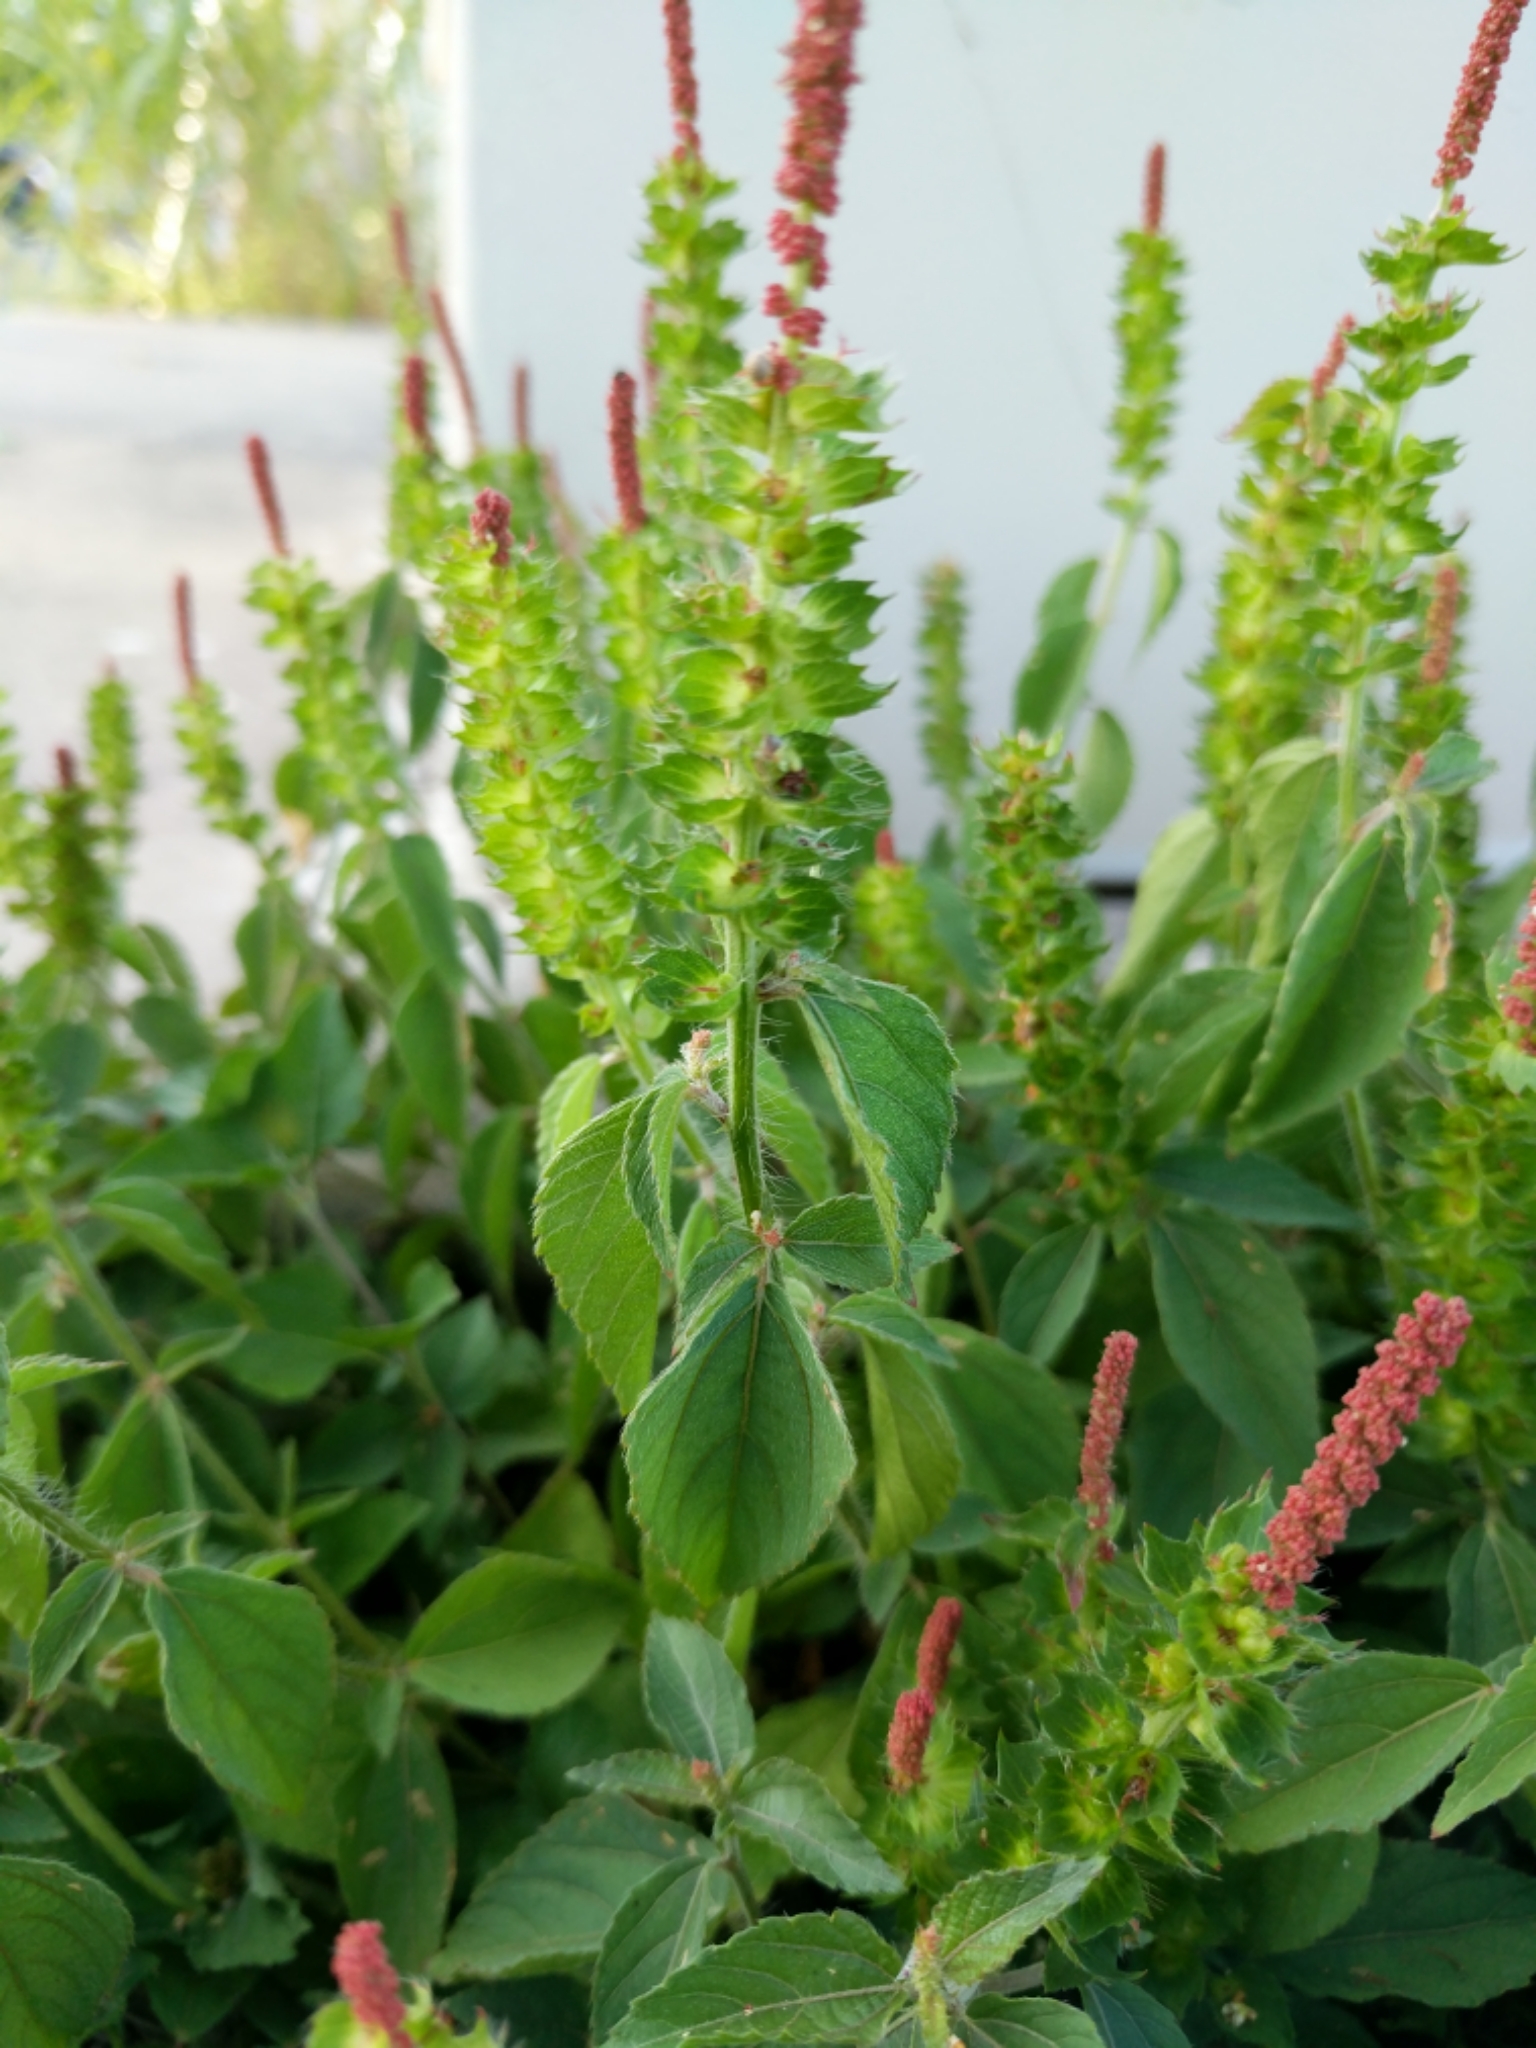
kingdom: Plantae
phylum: Tracheophyta
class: Magnoliopsida
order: Malpighiales
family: Euphorbiaceae
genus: Acalypha
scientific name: Acalypha phleoides
